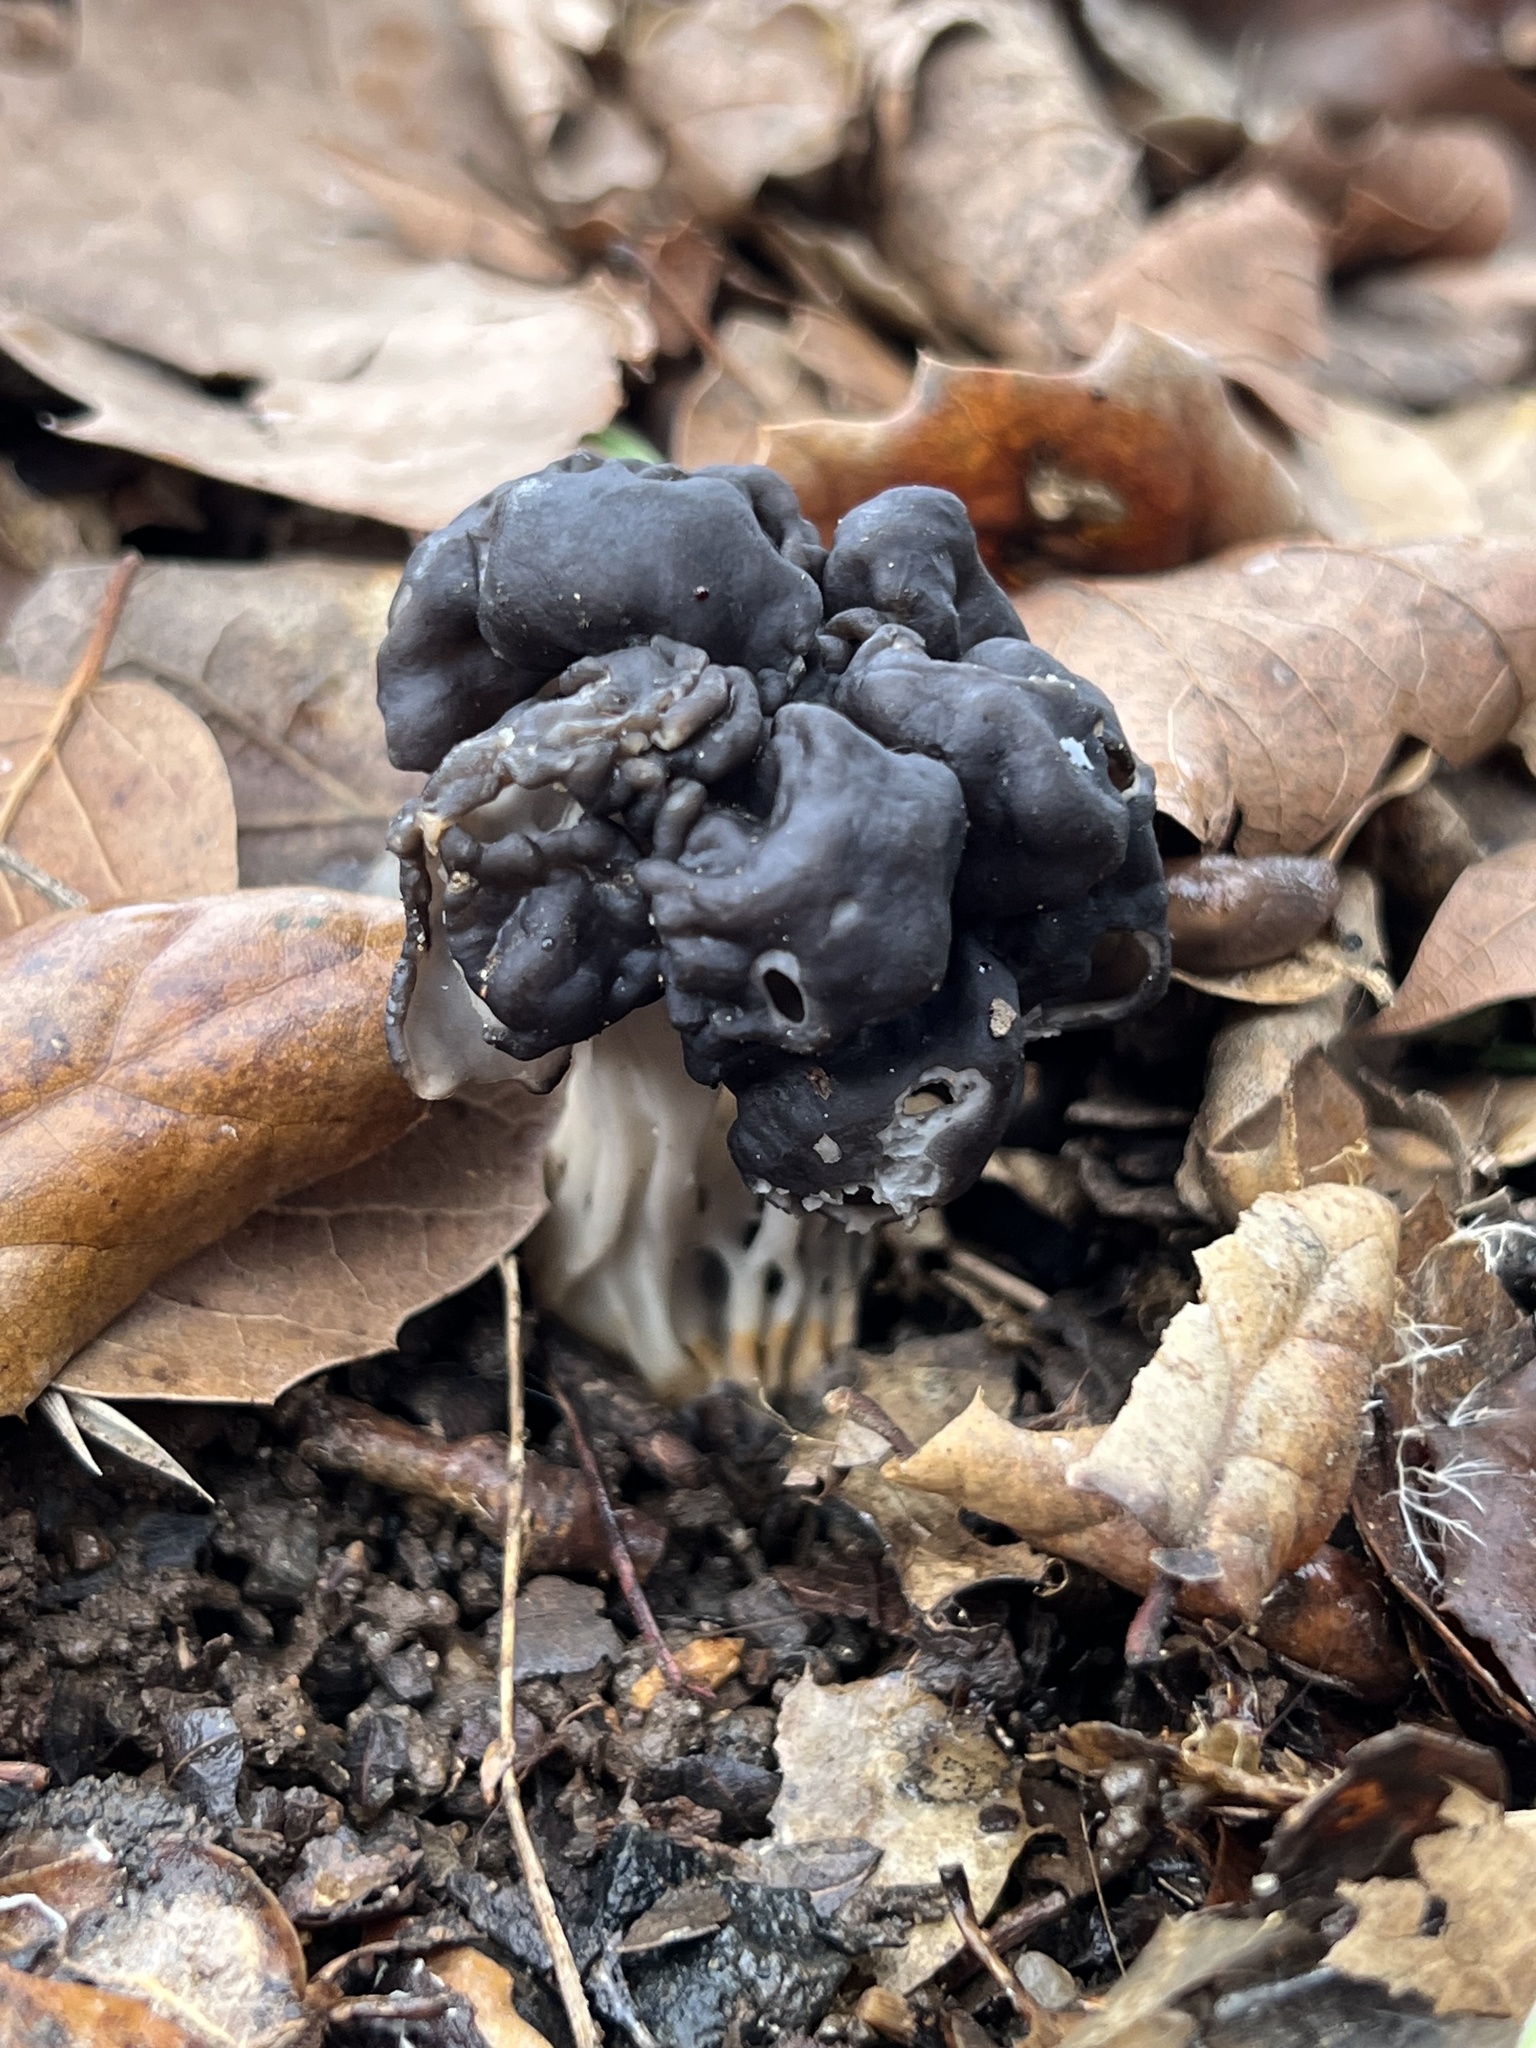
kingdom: Fungi
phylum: Ascomycota
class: Pezizomycetes
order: Pezizales
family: Helvellaceae
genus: Helvella
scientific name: Helvella dryophila
